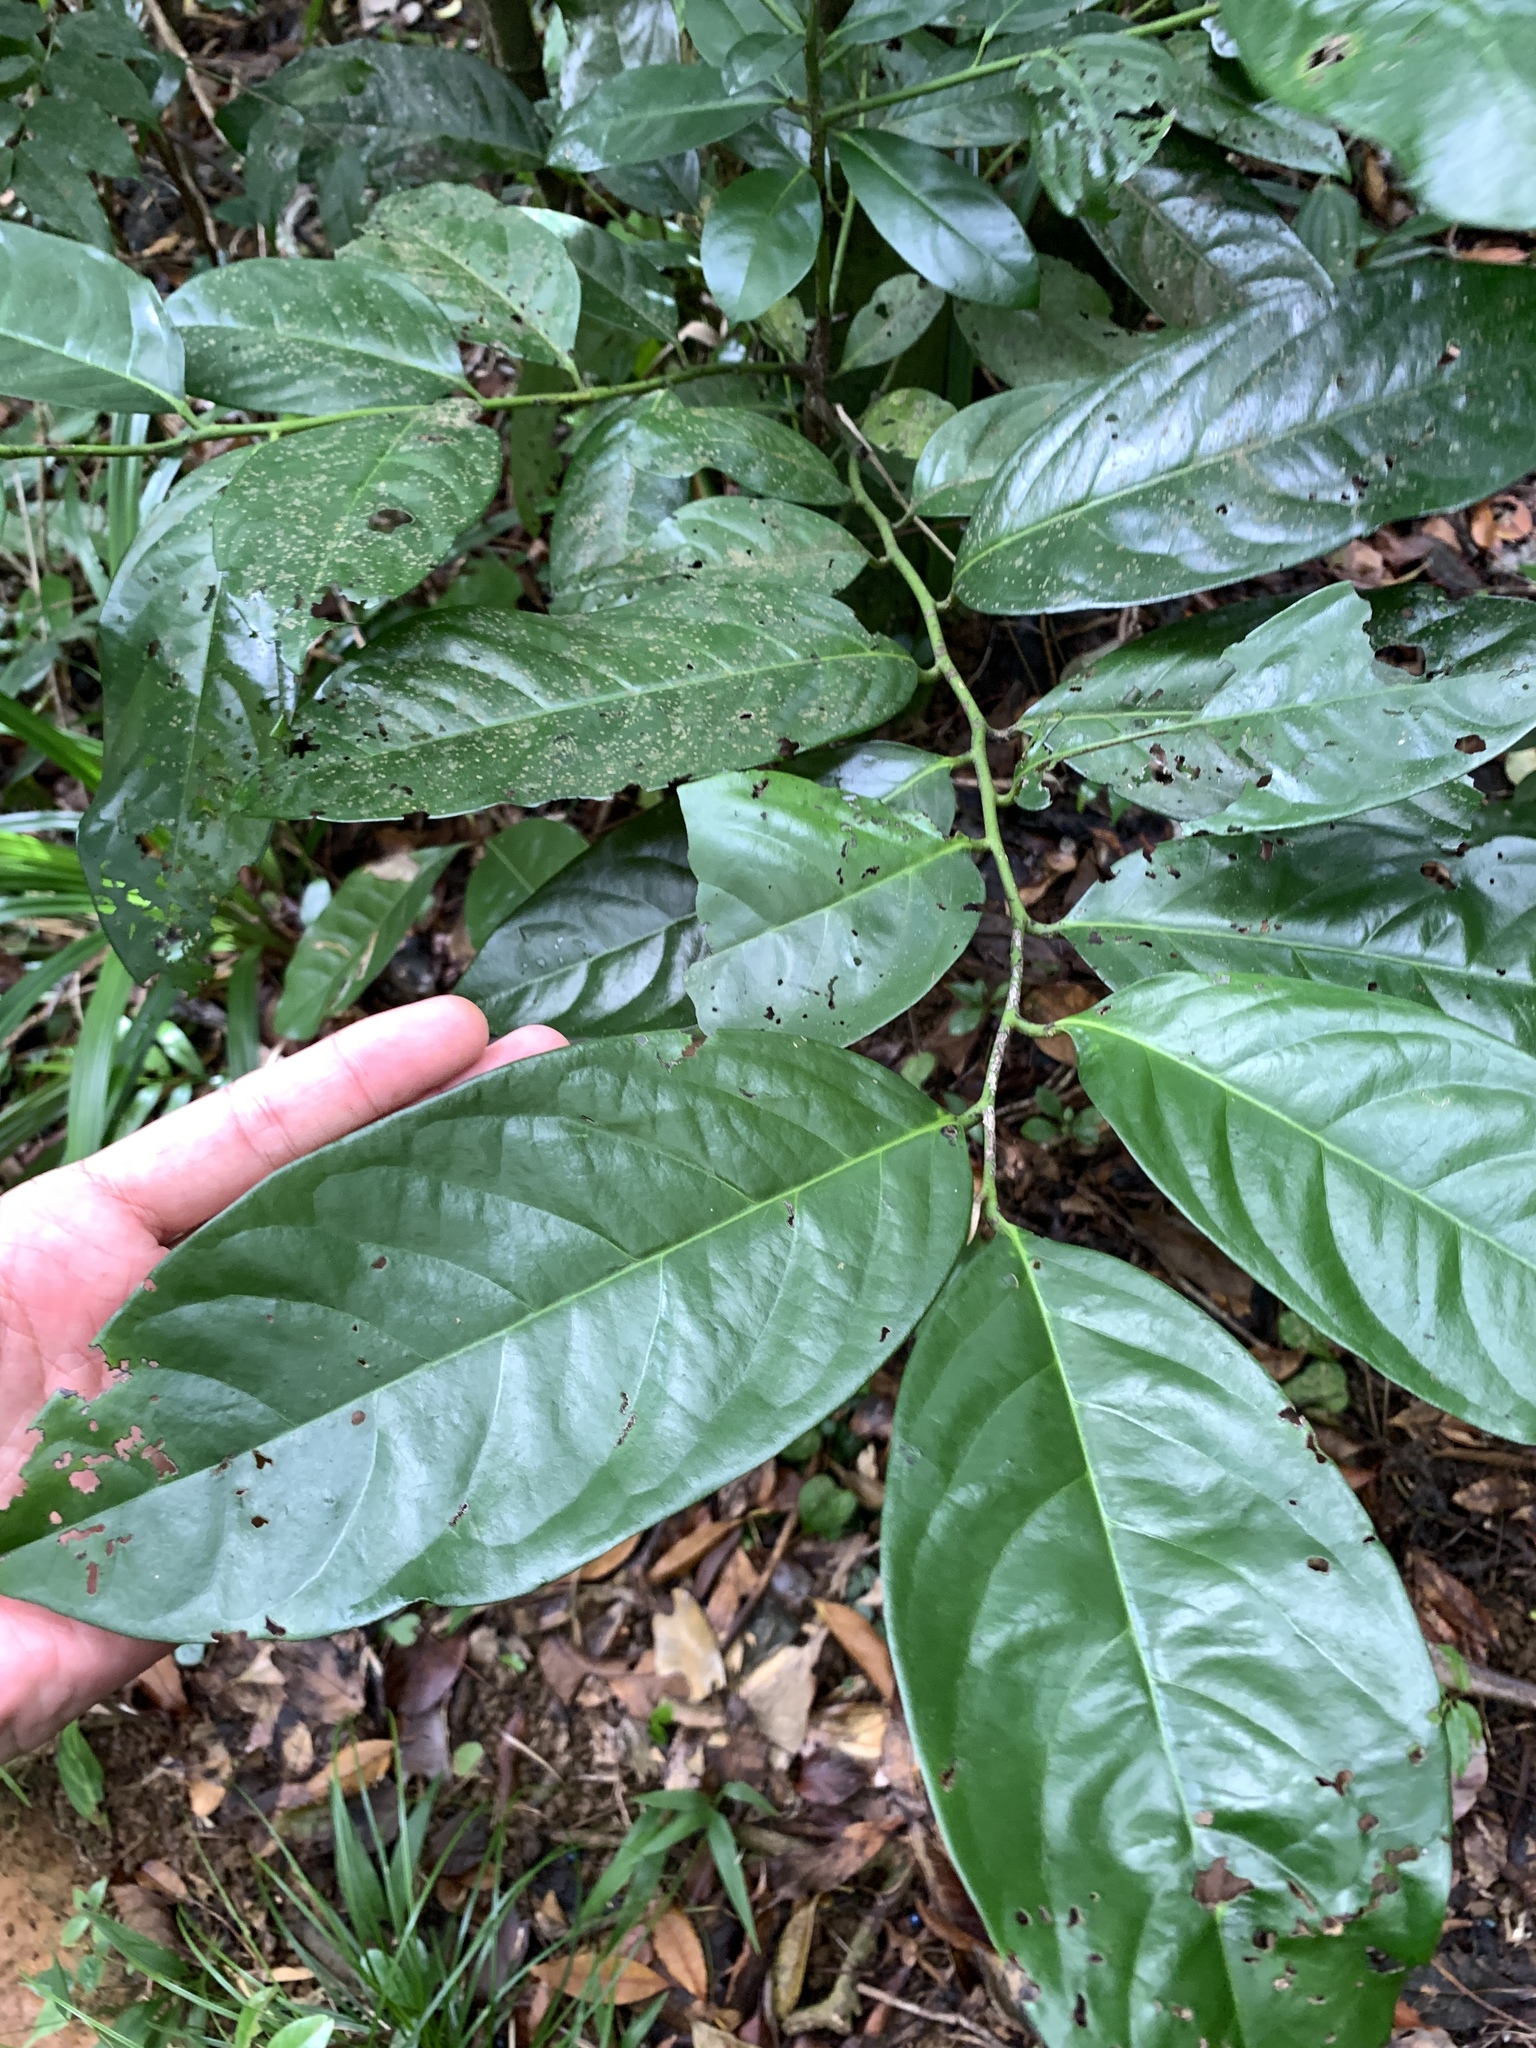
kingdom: Plantae
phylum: Tracheophyta
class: Magnoliopsida
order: Ericales
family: Ebenaceae
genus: Diospyros
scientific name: Diospyros maritima
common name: Malaysian persimmon
